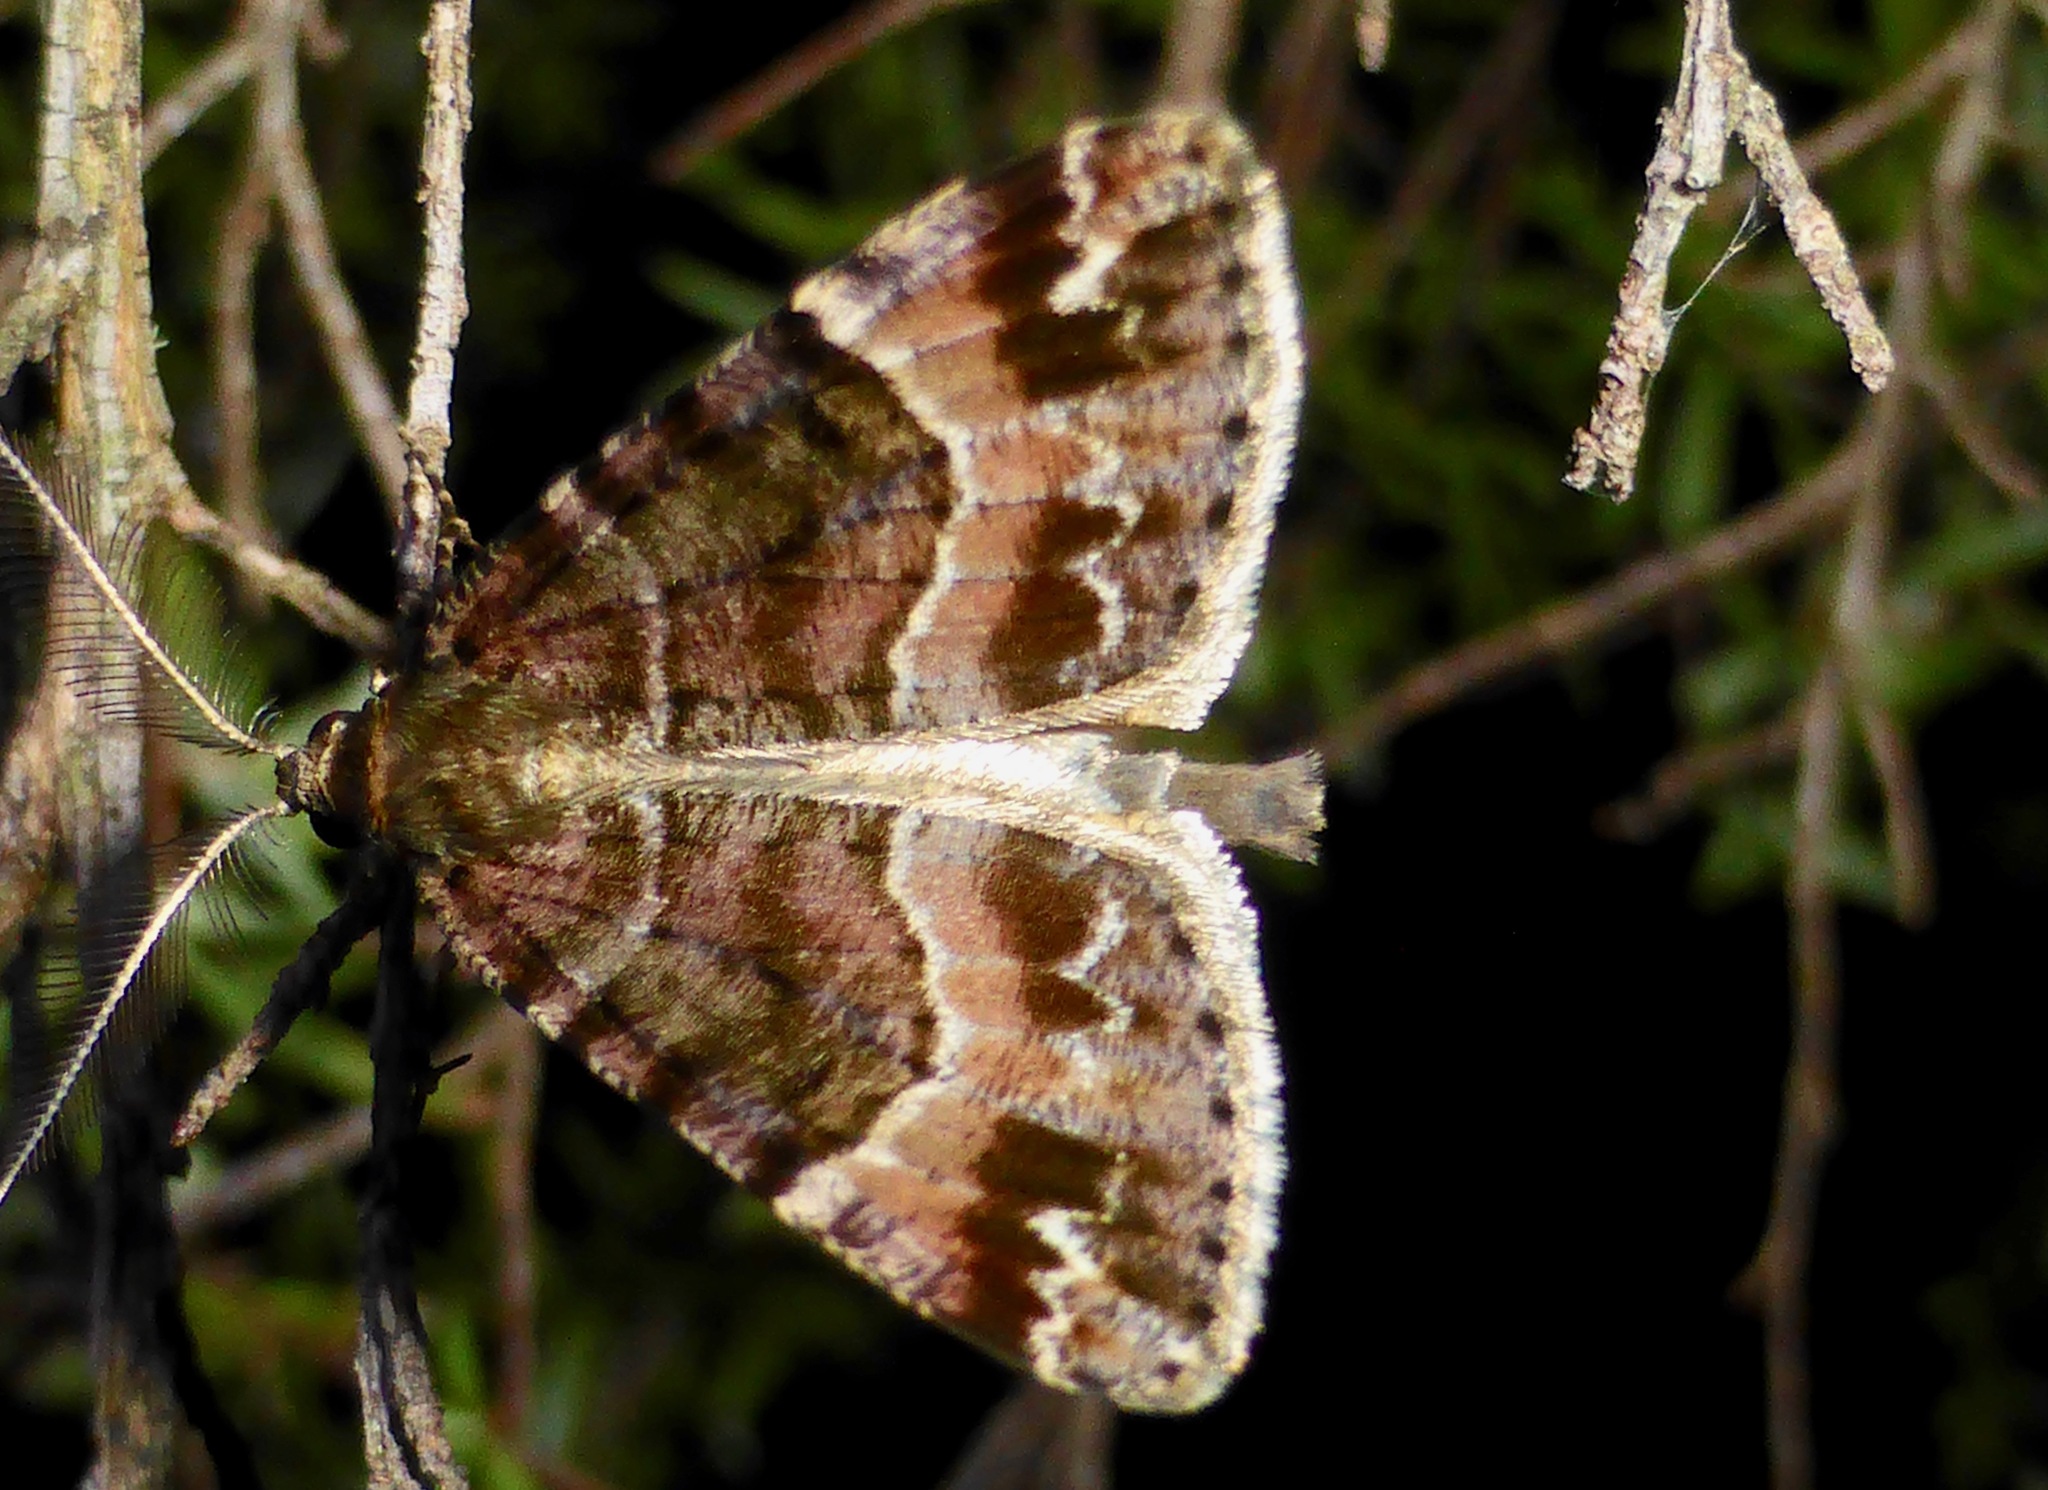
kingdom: Animalia
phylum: Arthropoda
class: Insecta
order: Lepidoptera
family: Geometridae
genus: Pseudocoremia
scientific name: Pseudocoremia productata
